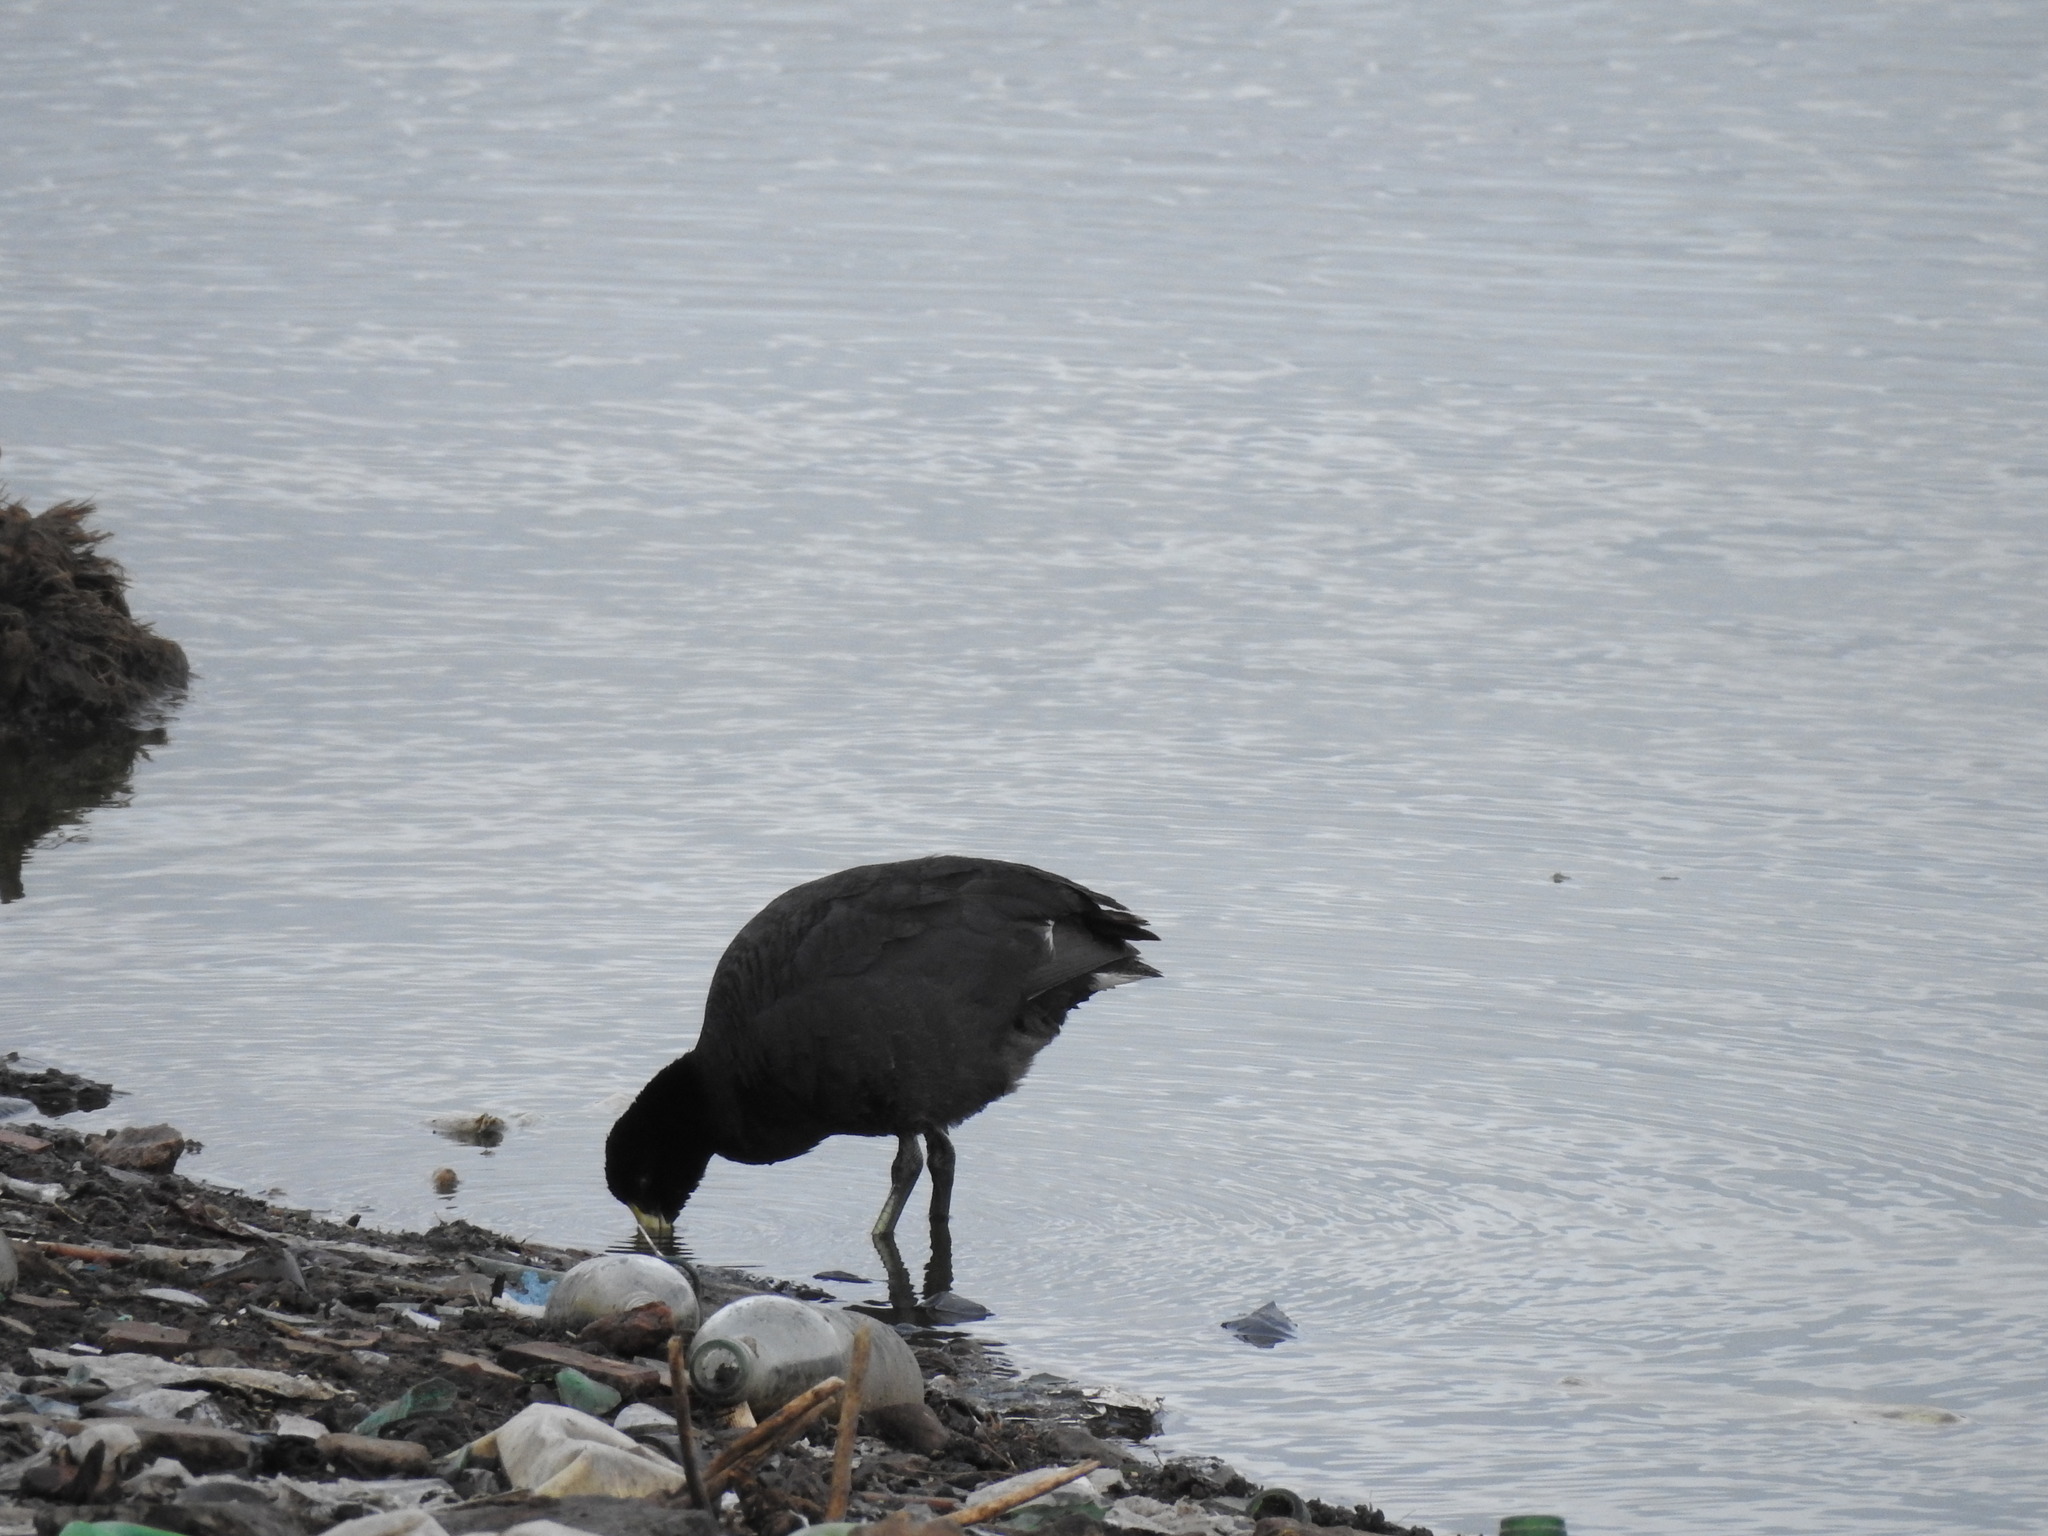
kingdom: Animalia
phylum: Chordata
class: Aves
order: Gruiformes
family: Rallidae
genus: Fulica
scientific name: Fulica leucoptera
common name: White-winged coot
